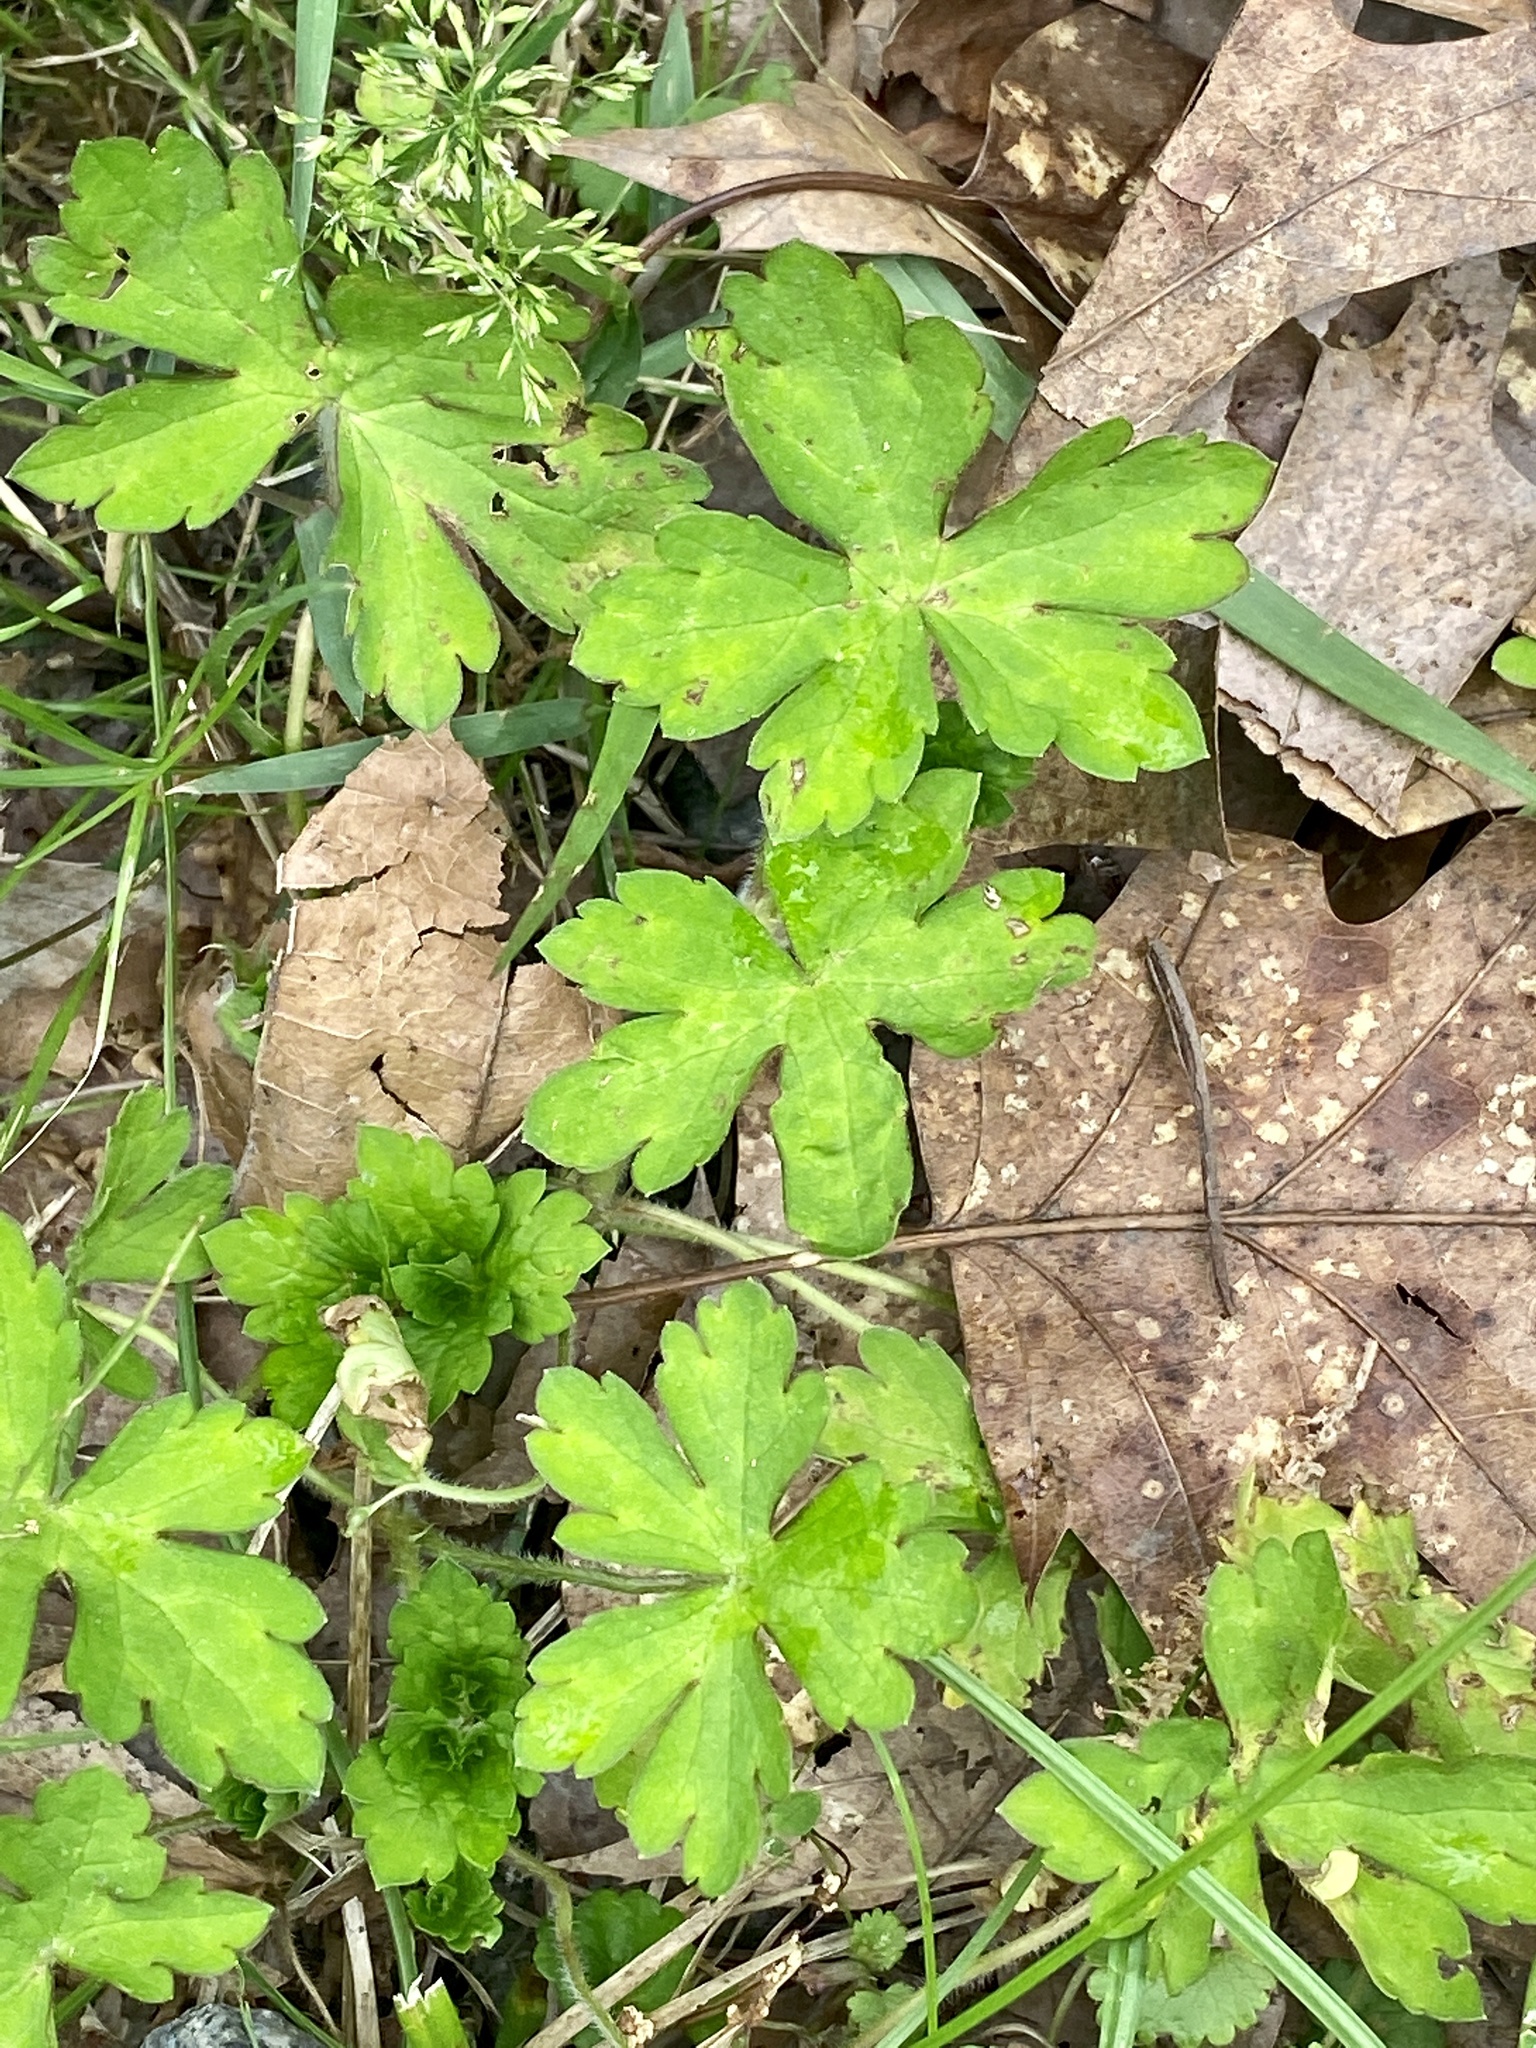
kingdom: Plantae
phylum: Tracheophyta
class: Magnoliopsida
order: Geraniales
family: Geraniaceae
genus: Geranium
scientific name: Geranium thunbergii
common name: Dewdrop crane's-bill
